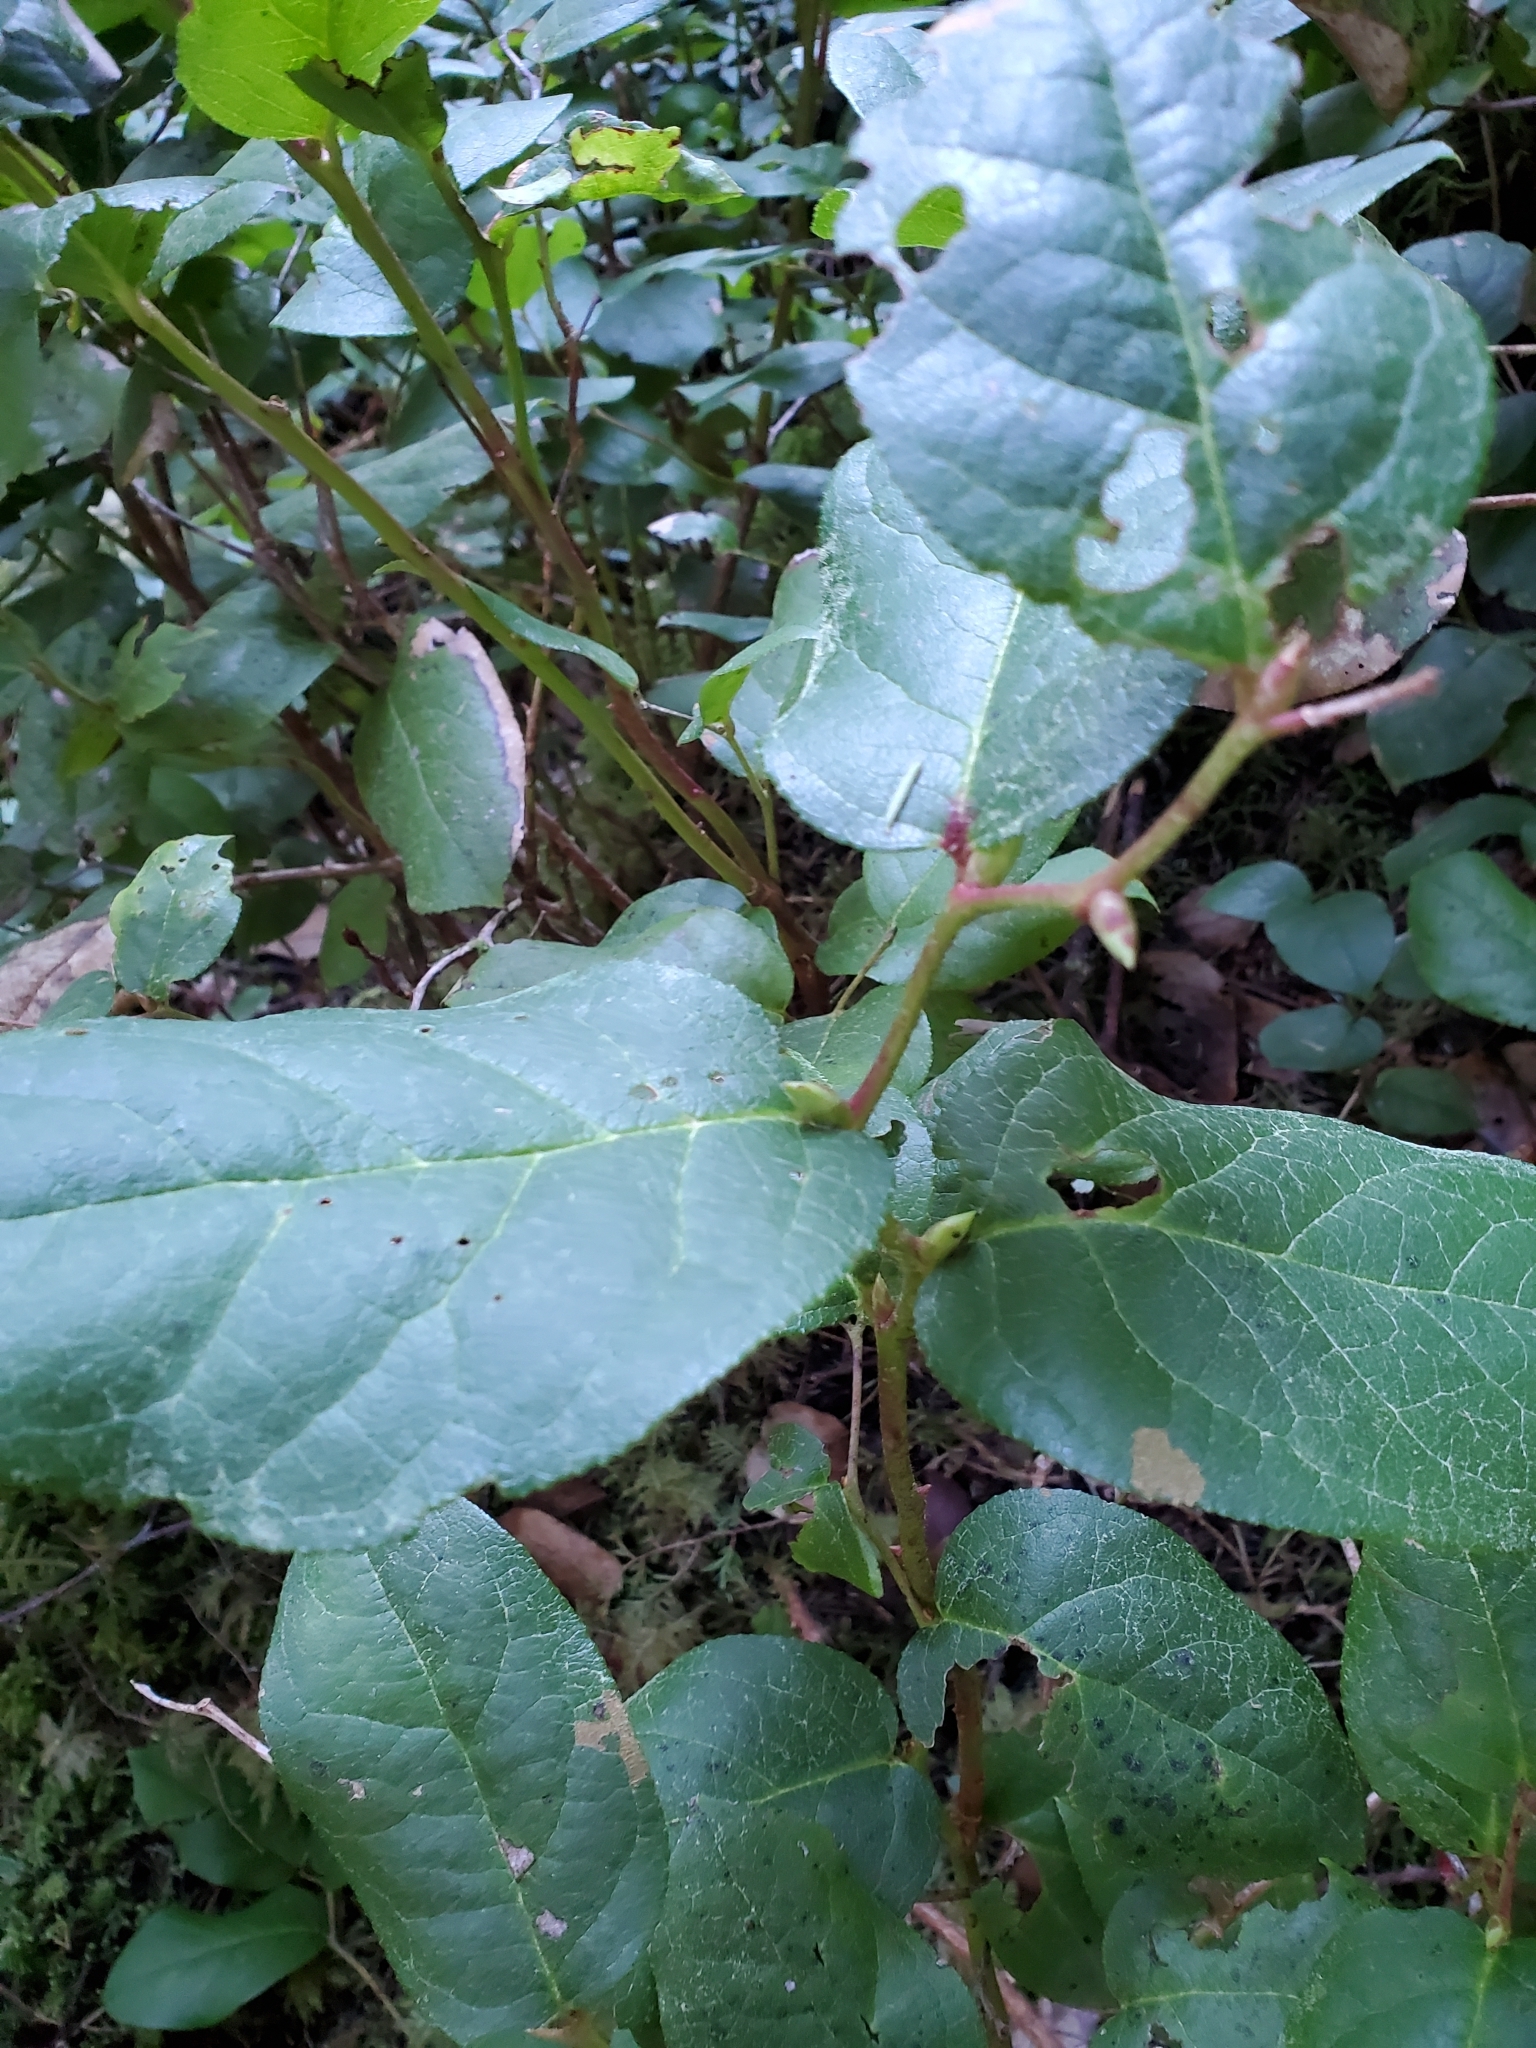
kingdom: Plantae
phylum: Tracheophyta
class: Magnoliopsida
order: Ericales
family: Ericaceae
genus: Gaultheria
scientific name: Gaultheria shallon
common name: Shallon
